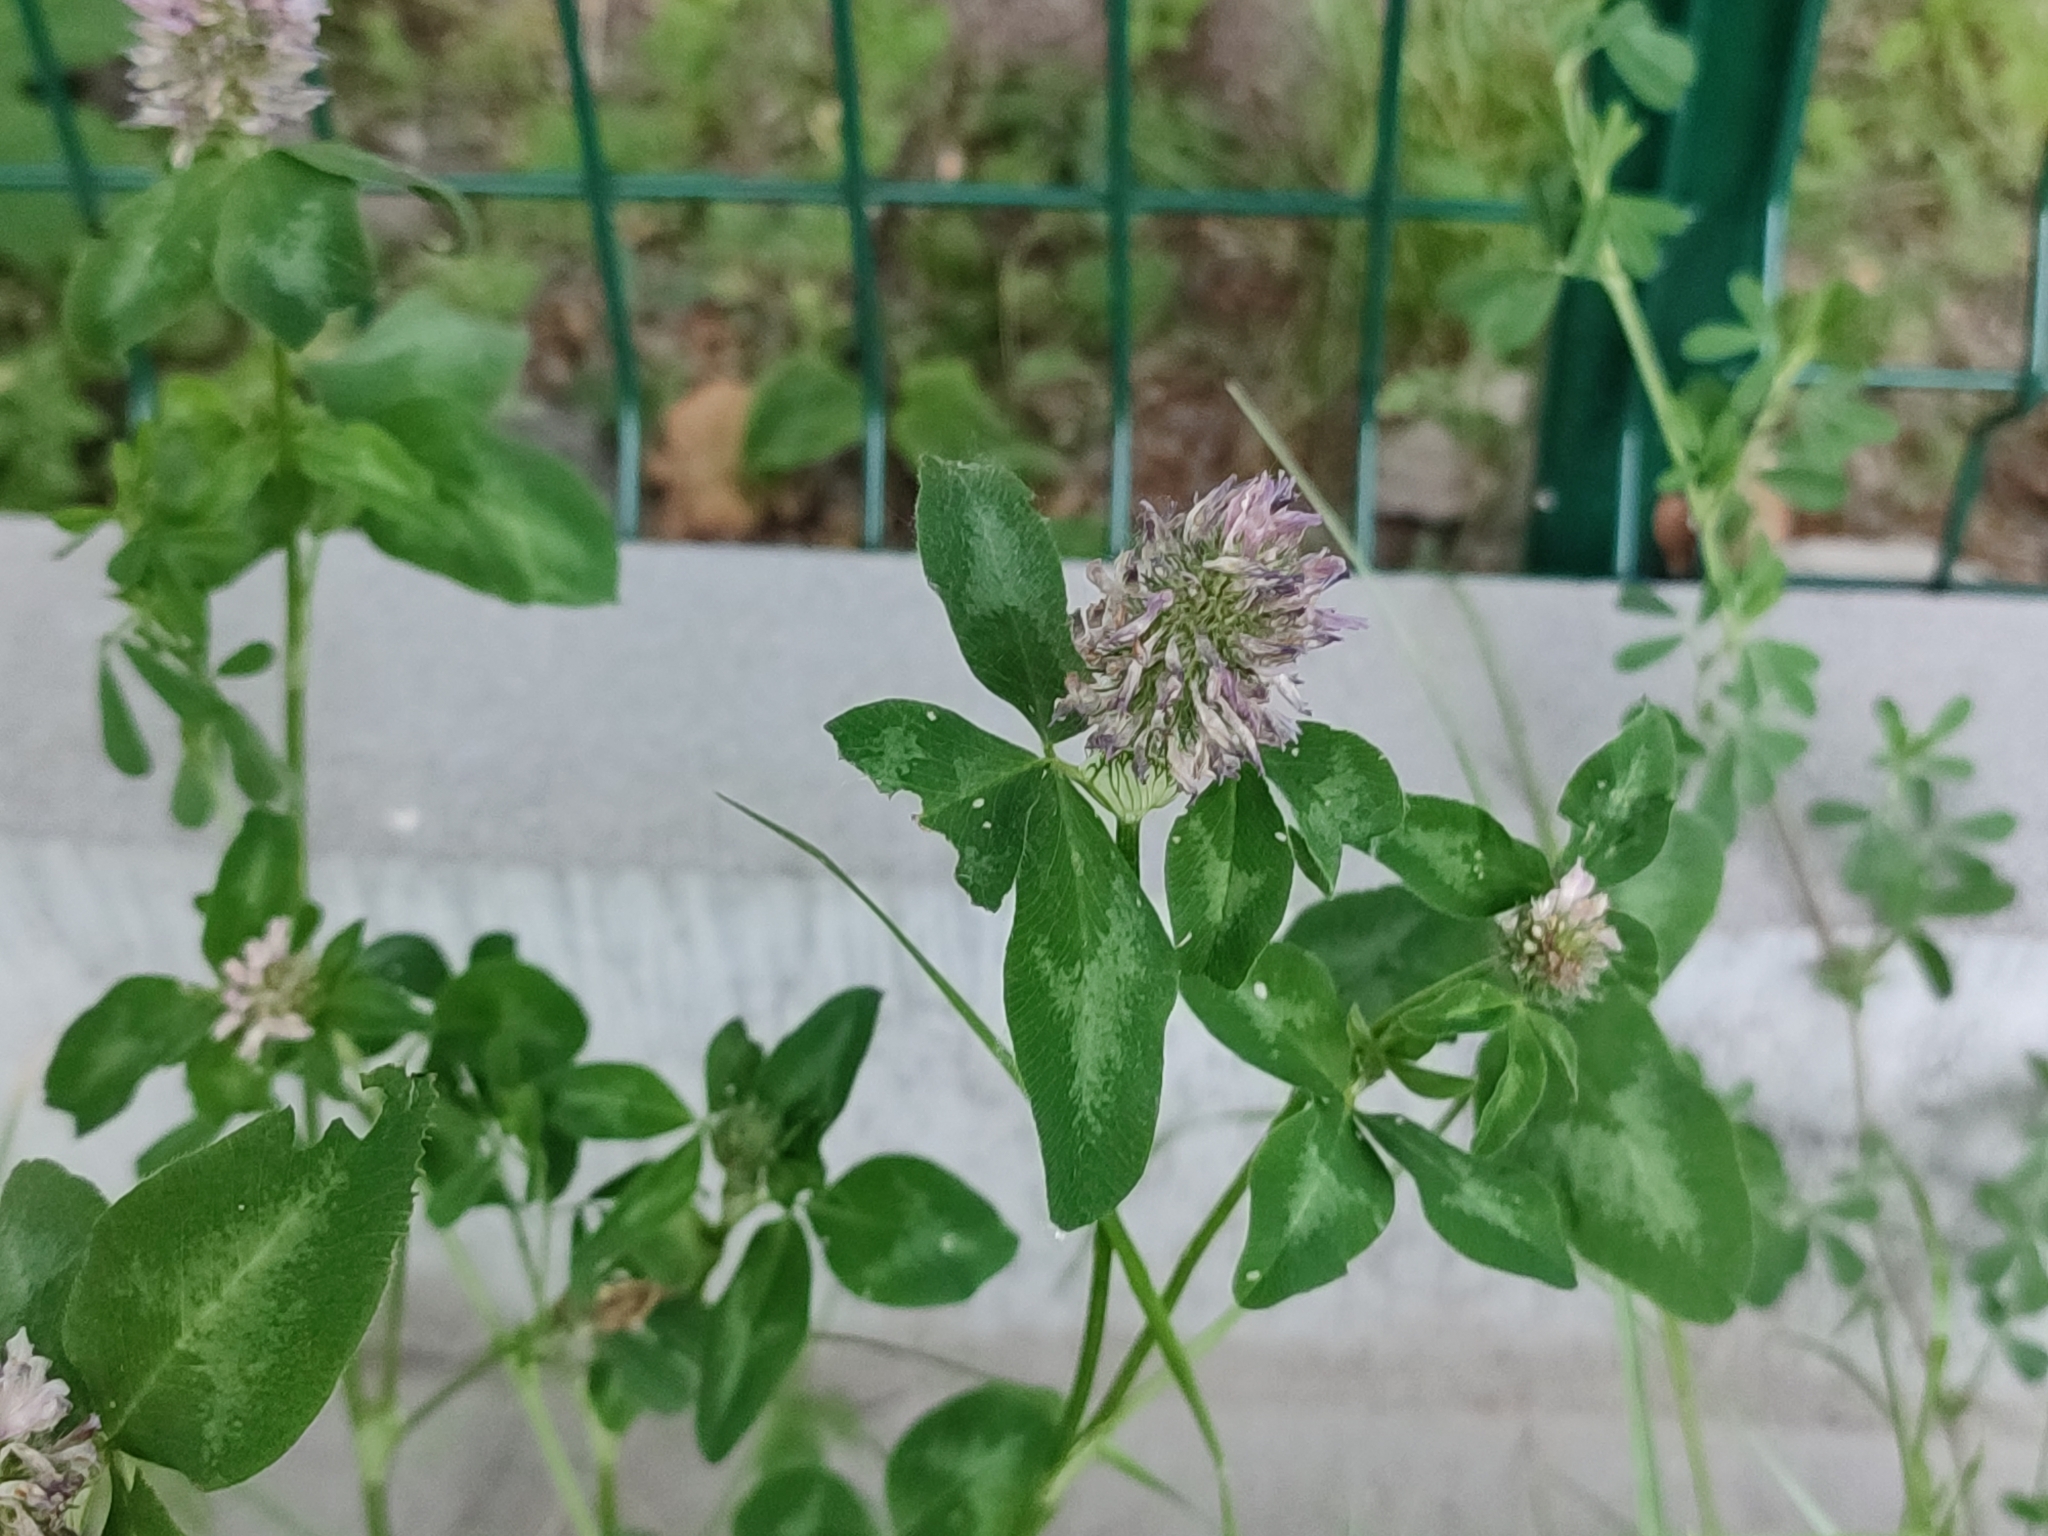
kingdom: Plantae
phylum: Tracheophyta
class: Magnoliopsida
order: Fabales
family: Fabaceae
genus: Trifolium
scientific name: Trifolium pratense
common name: Red clover
